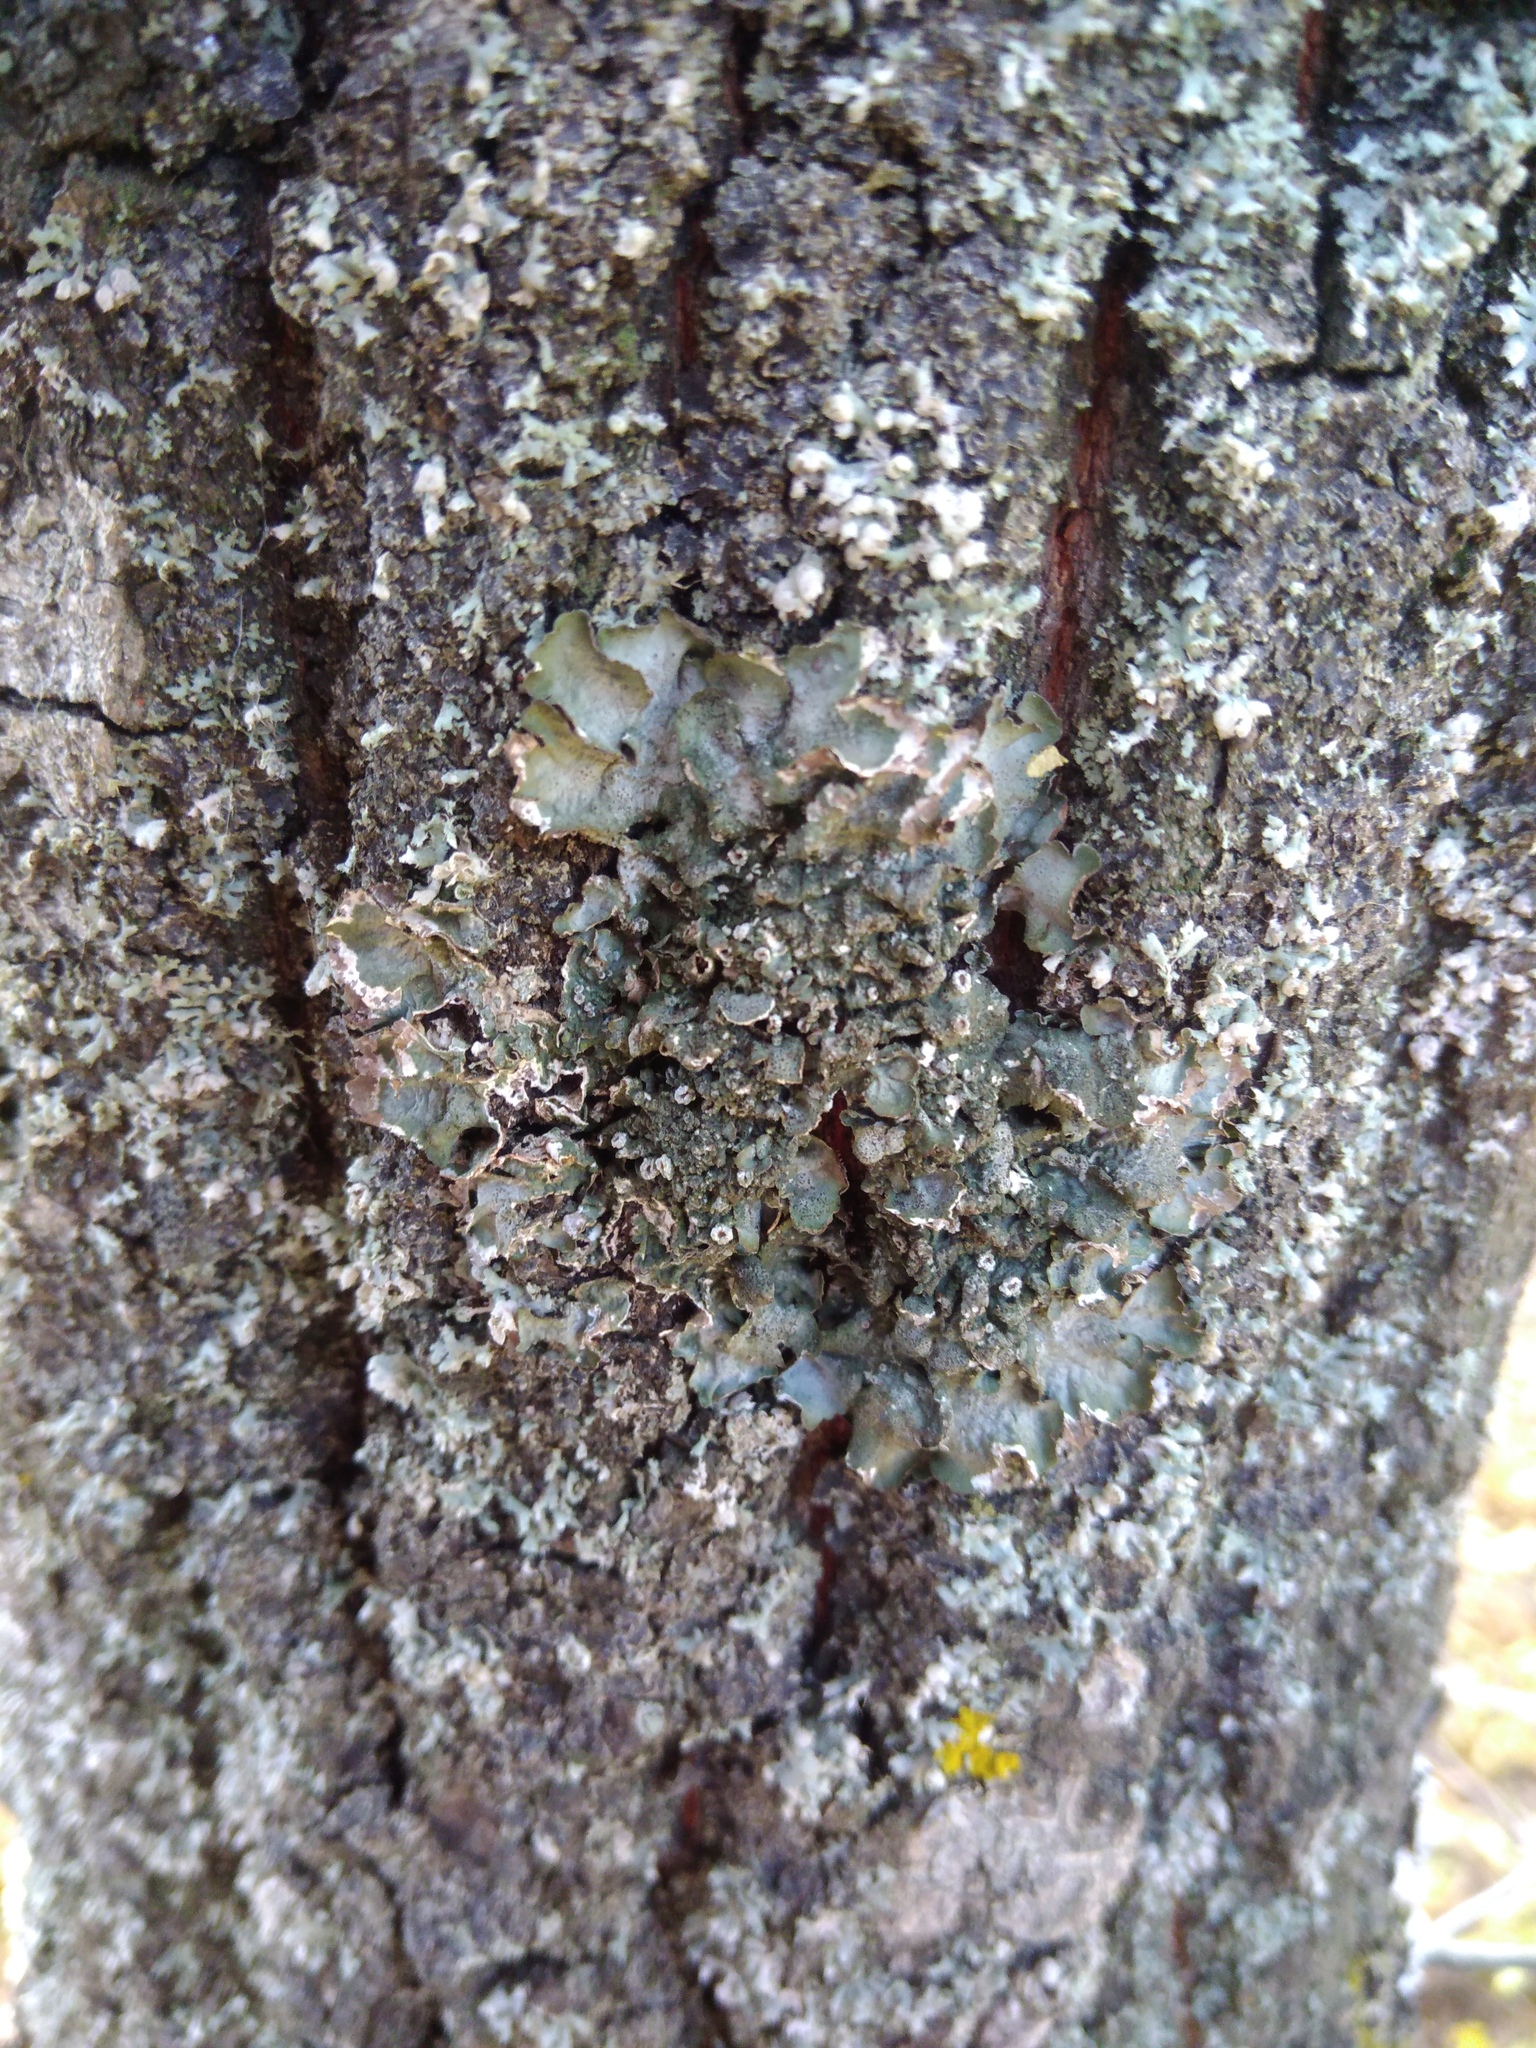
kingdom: Fungi
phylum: Ascomycota
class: Lecanoromycetes
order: Lecanorales
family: Parmeliaceae
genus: Pleurosticta
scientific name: Pleurosticta acetabulum
